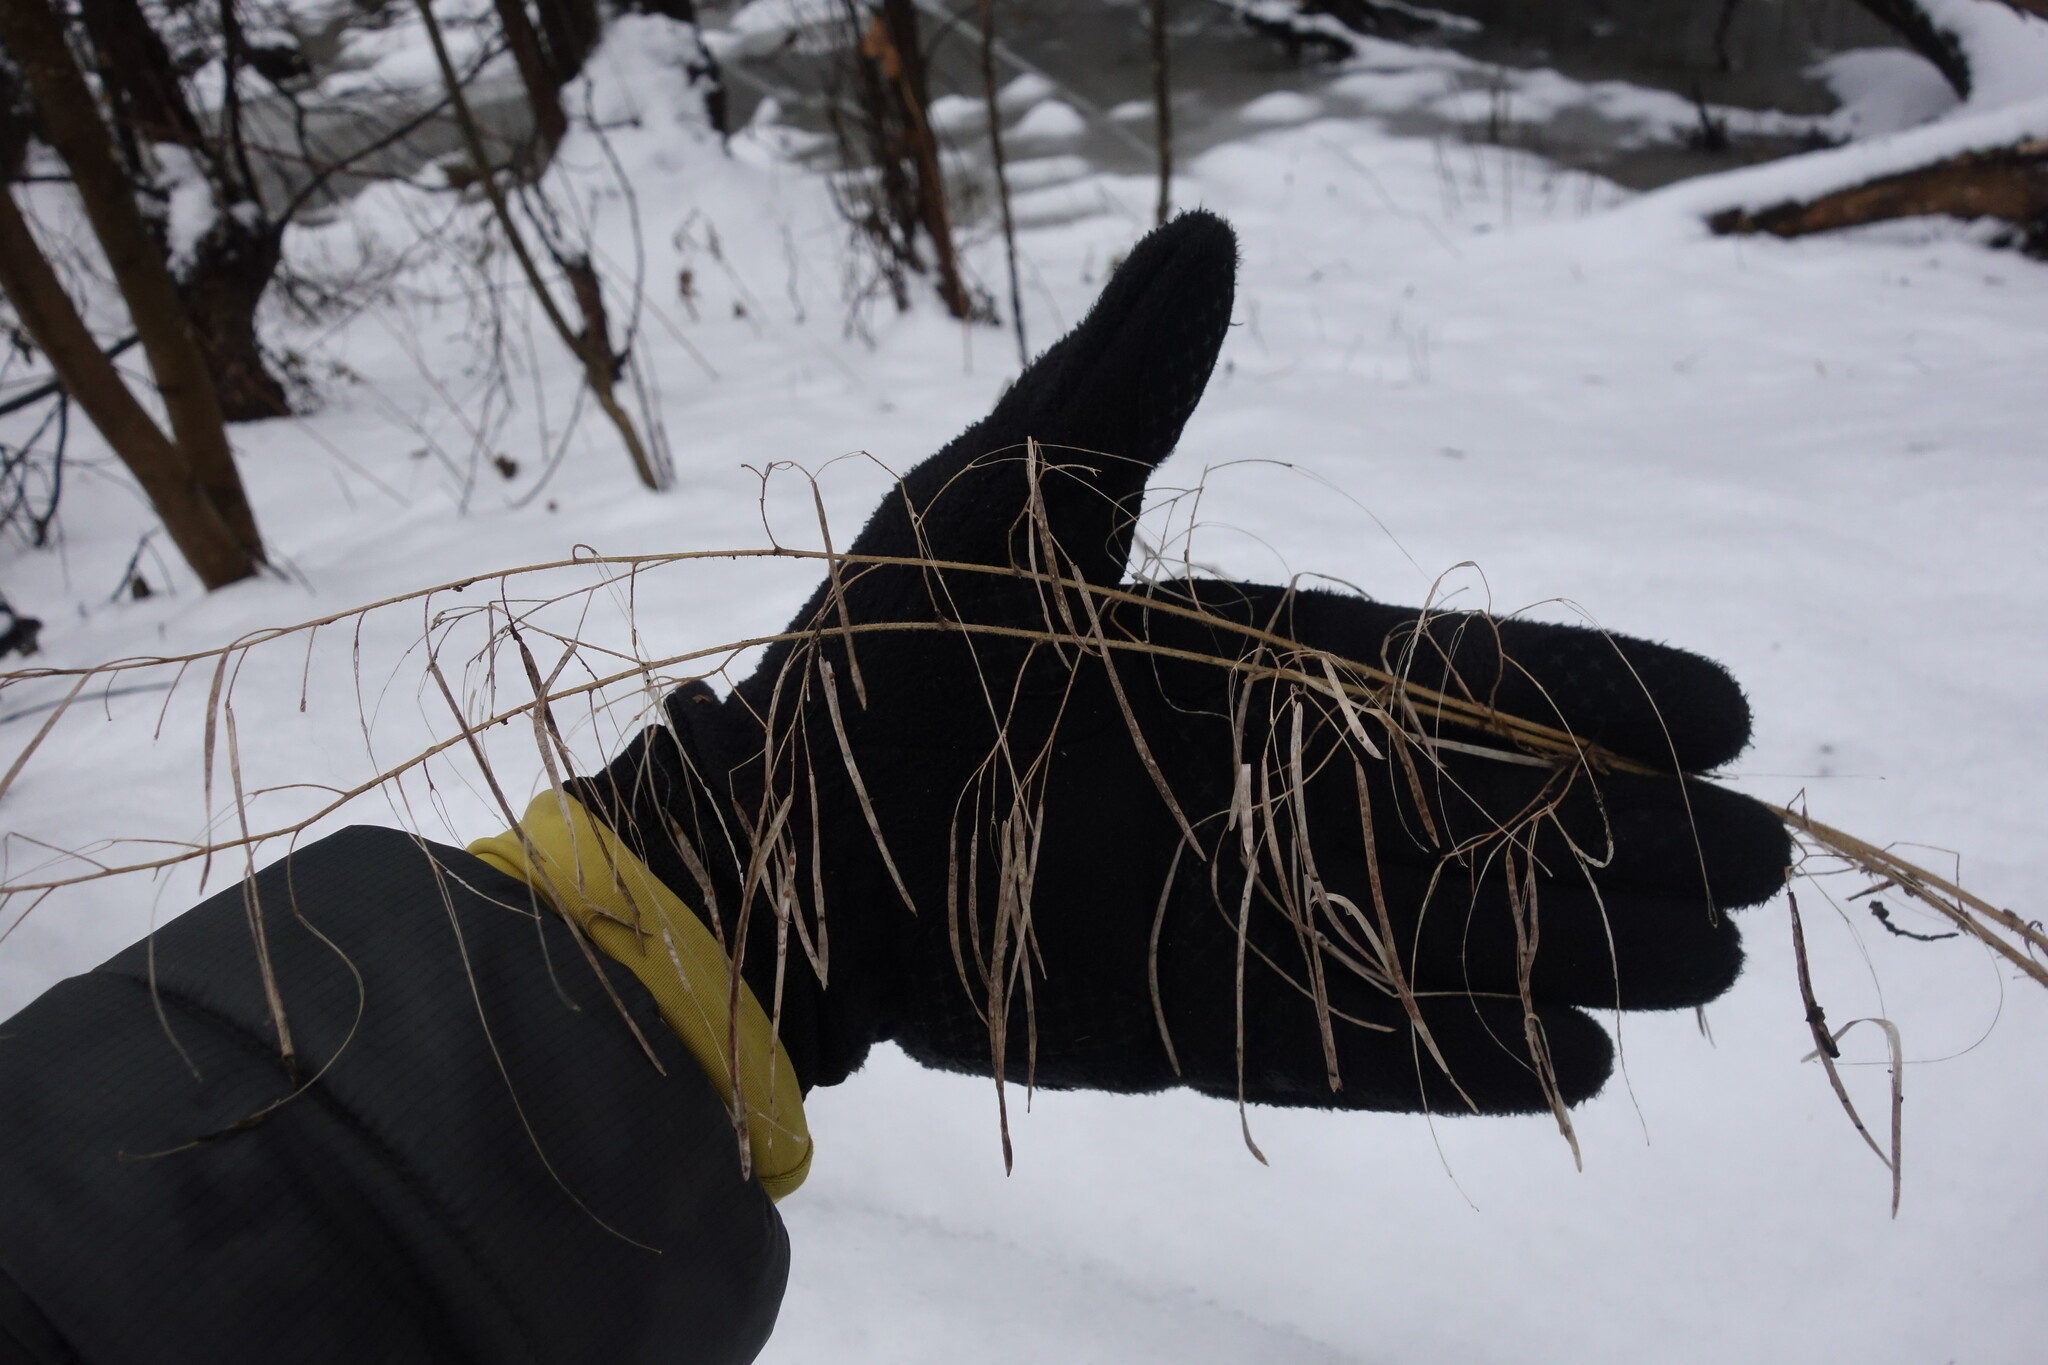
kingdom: Plantae
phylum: Tracheophyta
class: Magnoliopsida
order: Brassicales
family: Brassicaceae
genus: Catolobus
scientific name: Catolobus pendulus
